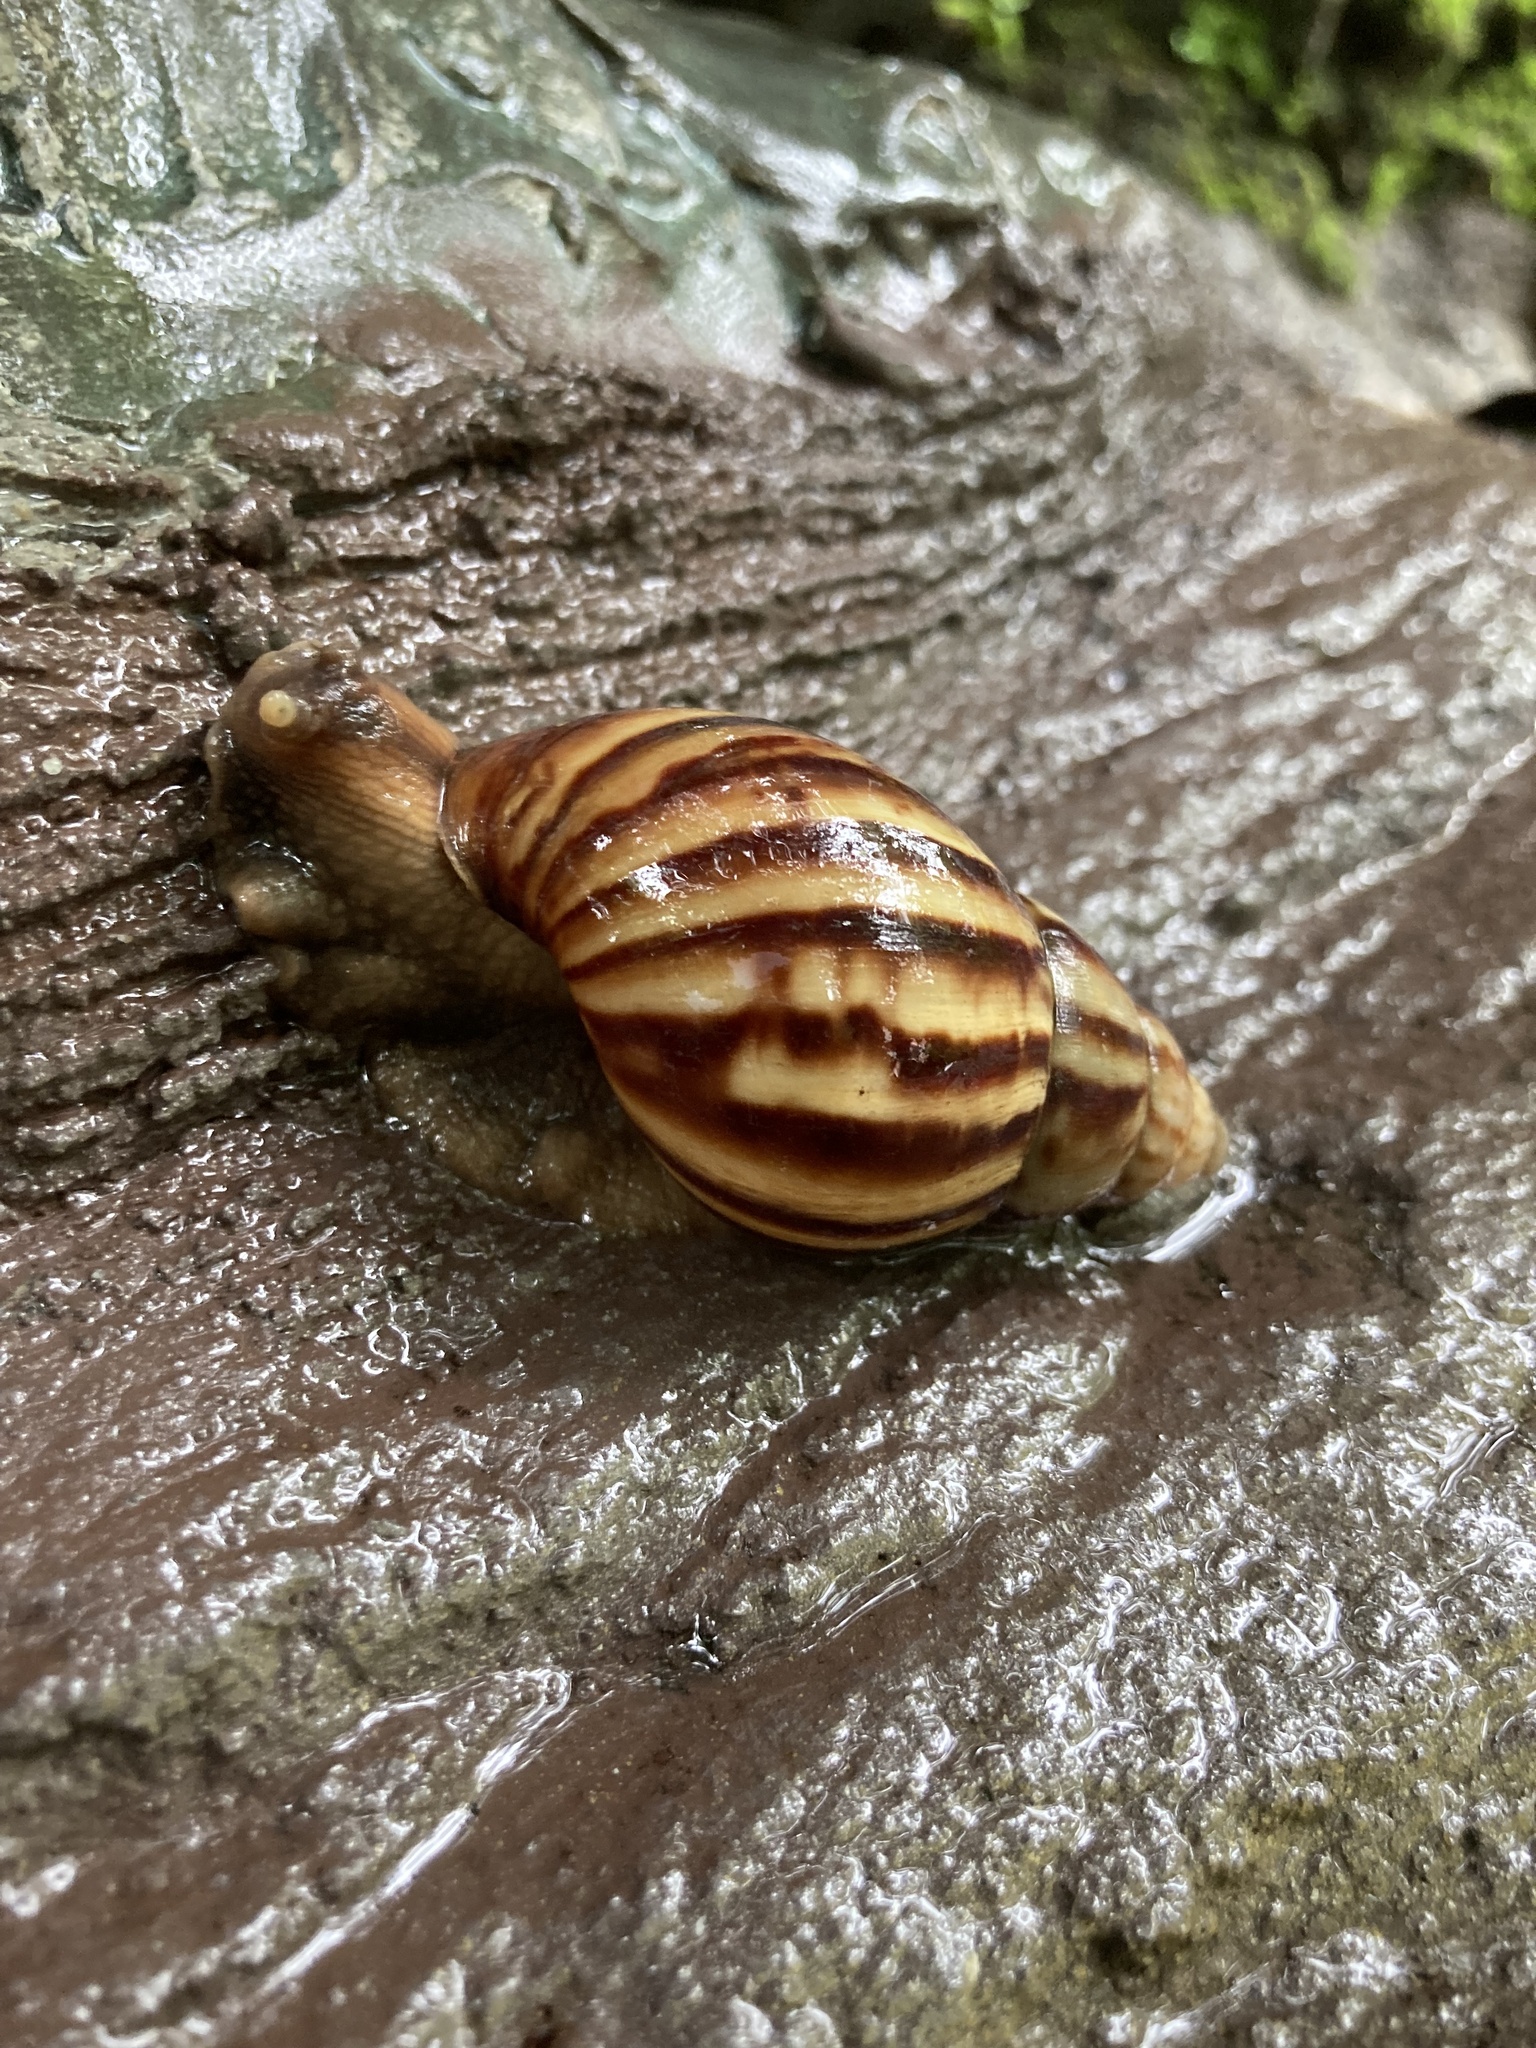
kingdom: Animalia
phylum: Mollusca
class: Gastropoda
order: Stylommatophora
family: Achatinidae
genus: Lissachatina
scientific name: Lissachatina fulica
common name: Giant african snail
